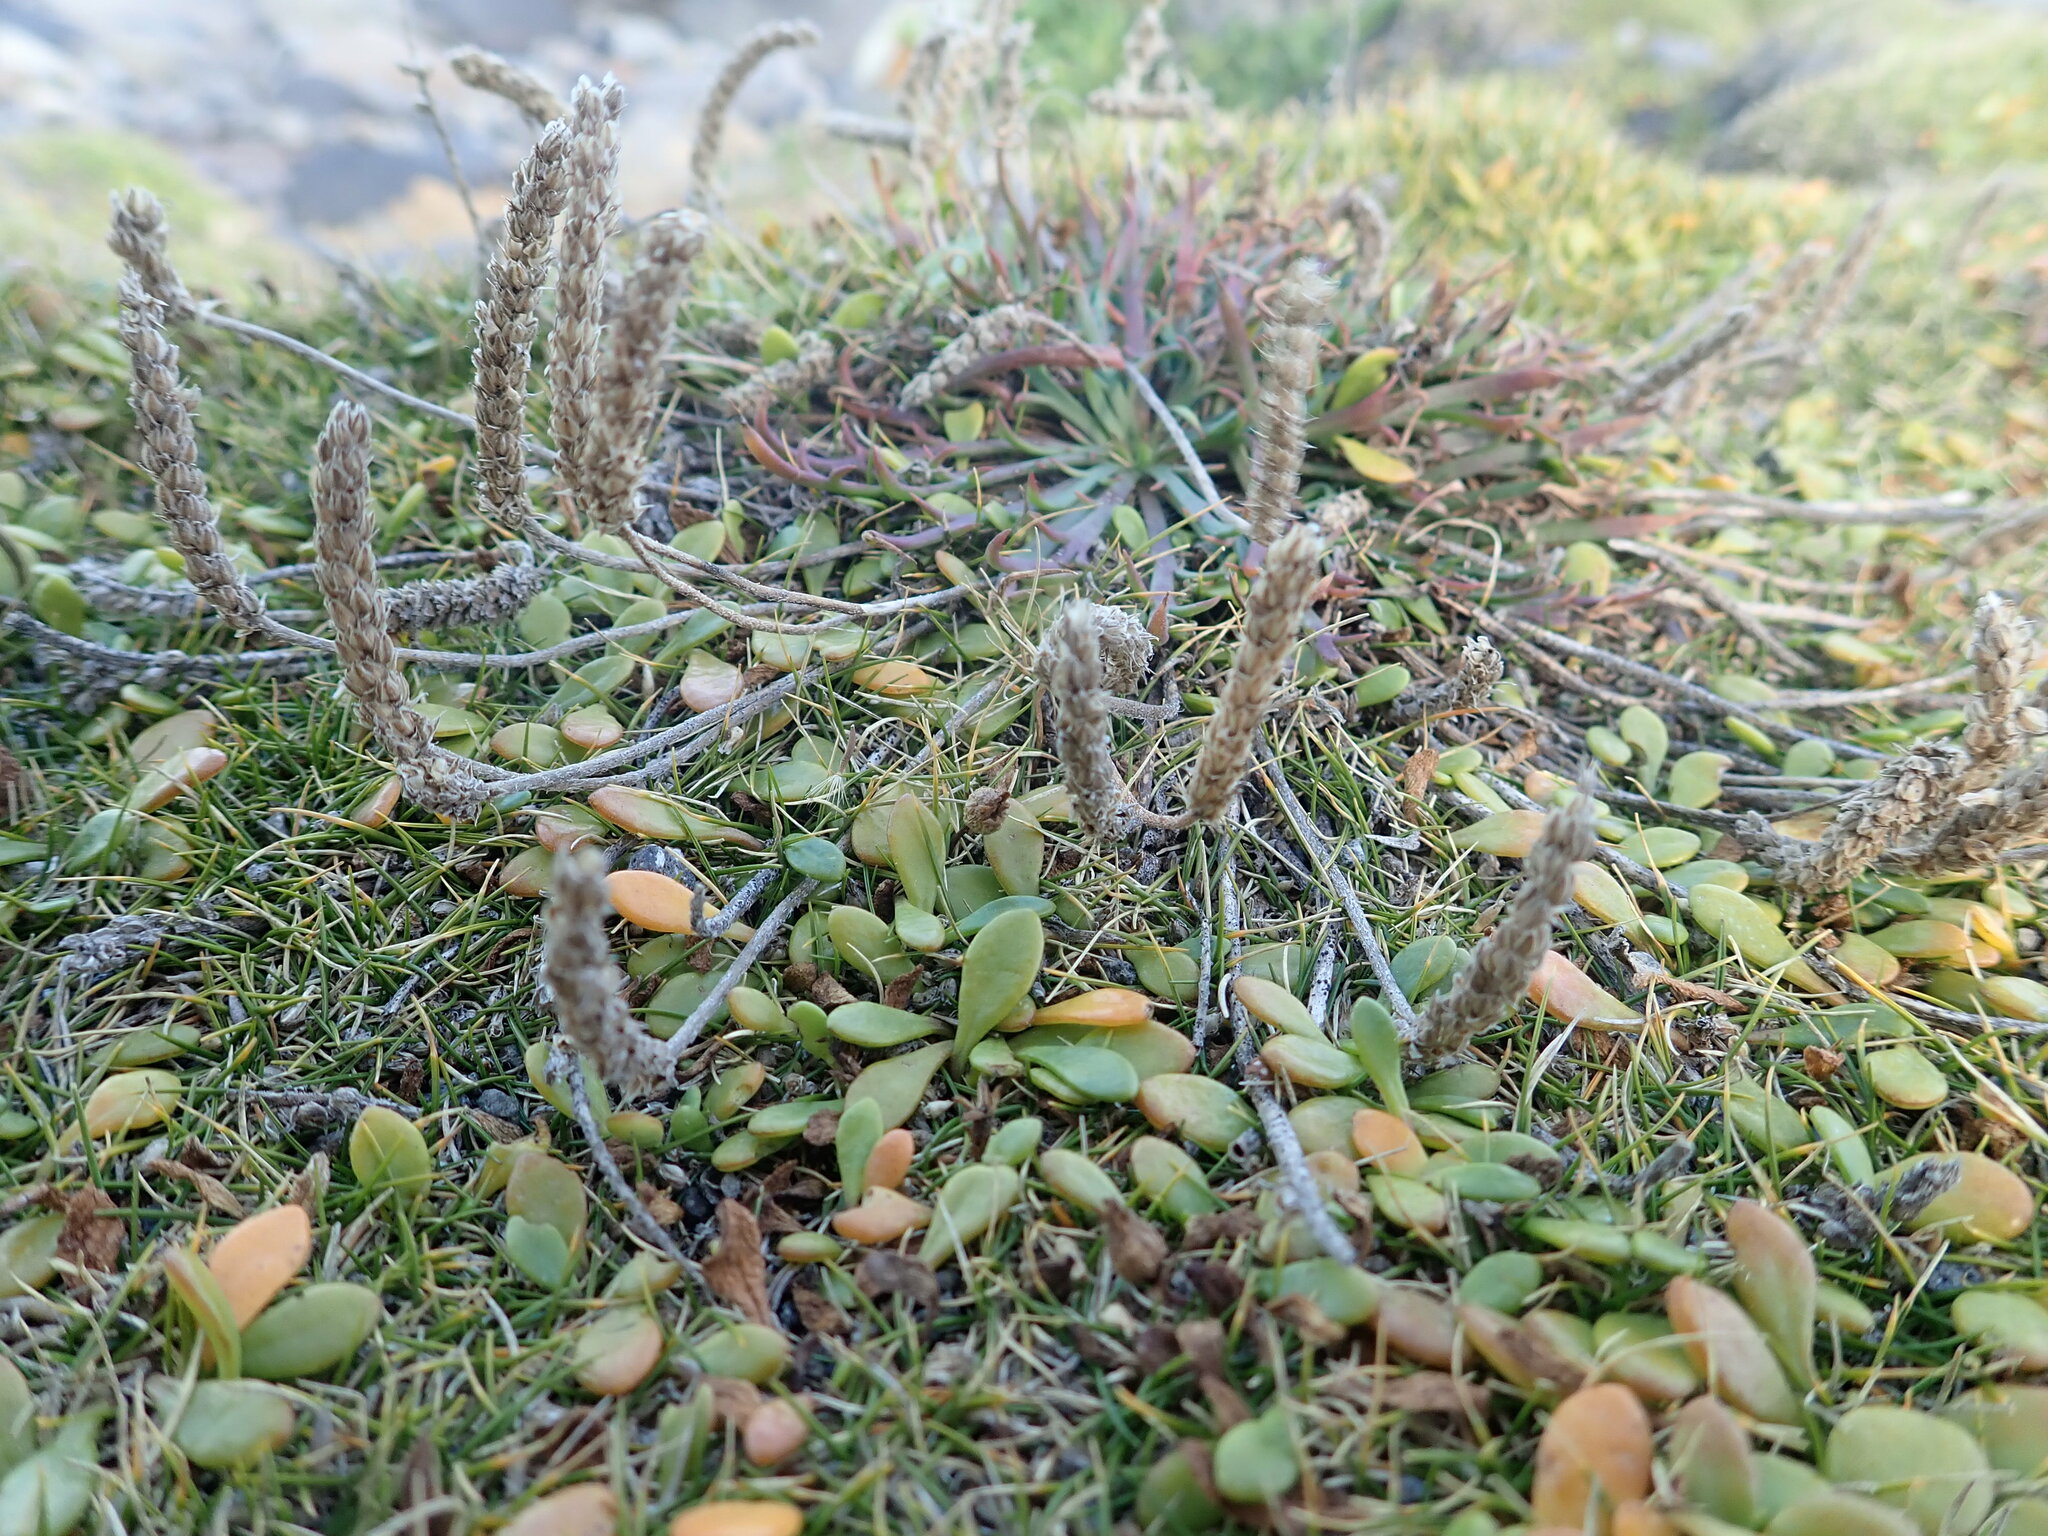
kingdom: Plantae
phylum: Tracheophyta
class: Magnoliopsida
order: Lamiales
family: Plantaginaceae
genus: Plantago
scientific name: Plantago coronopus
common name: Buck's-horn plantain
